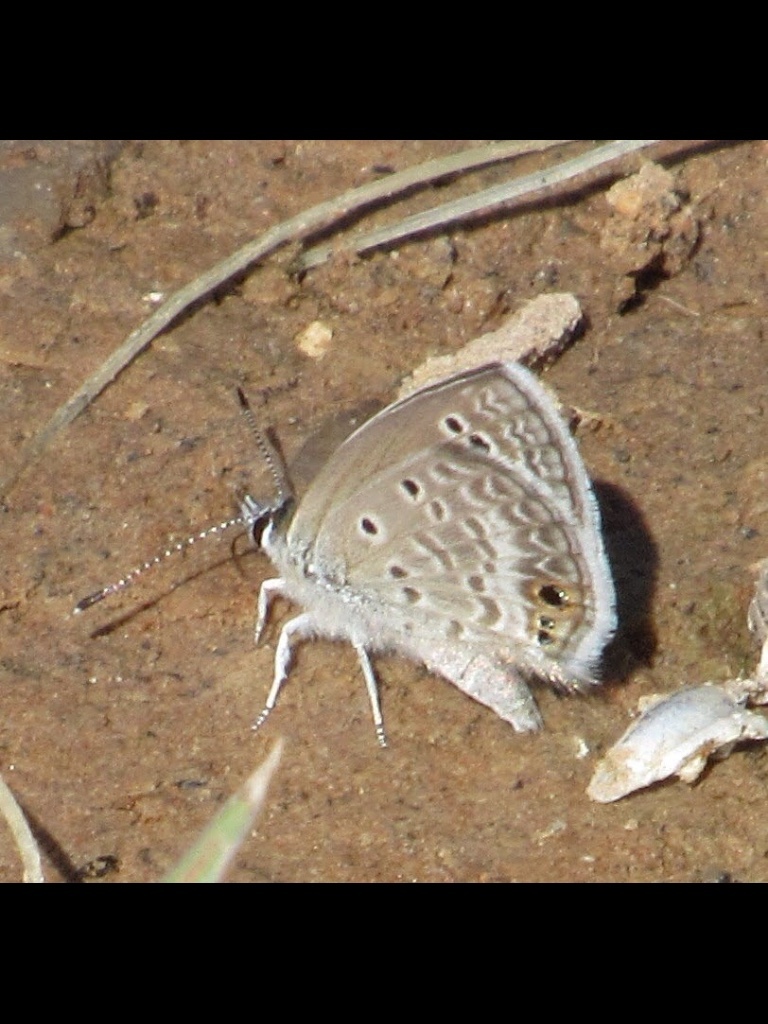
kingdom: Animalia
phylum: Arthropoda
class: Insecta
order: Lepidoptera
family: Lycaenidae
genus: Echinargus
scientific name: Echinargus isola
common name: Reakirt's blue
